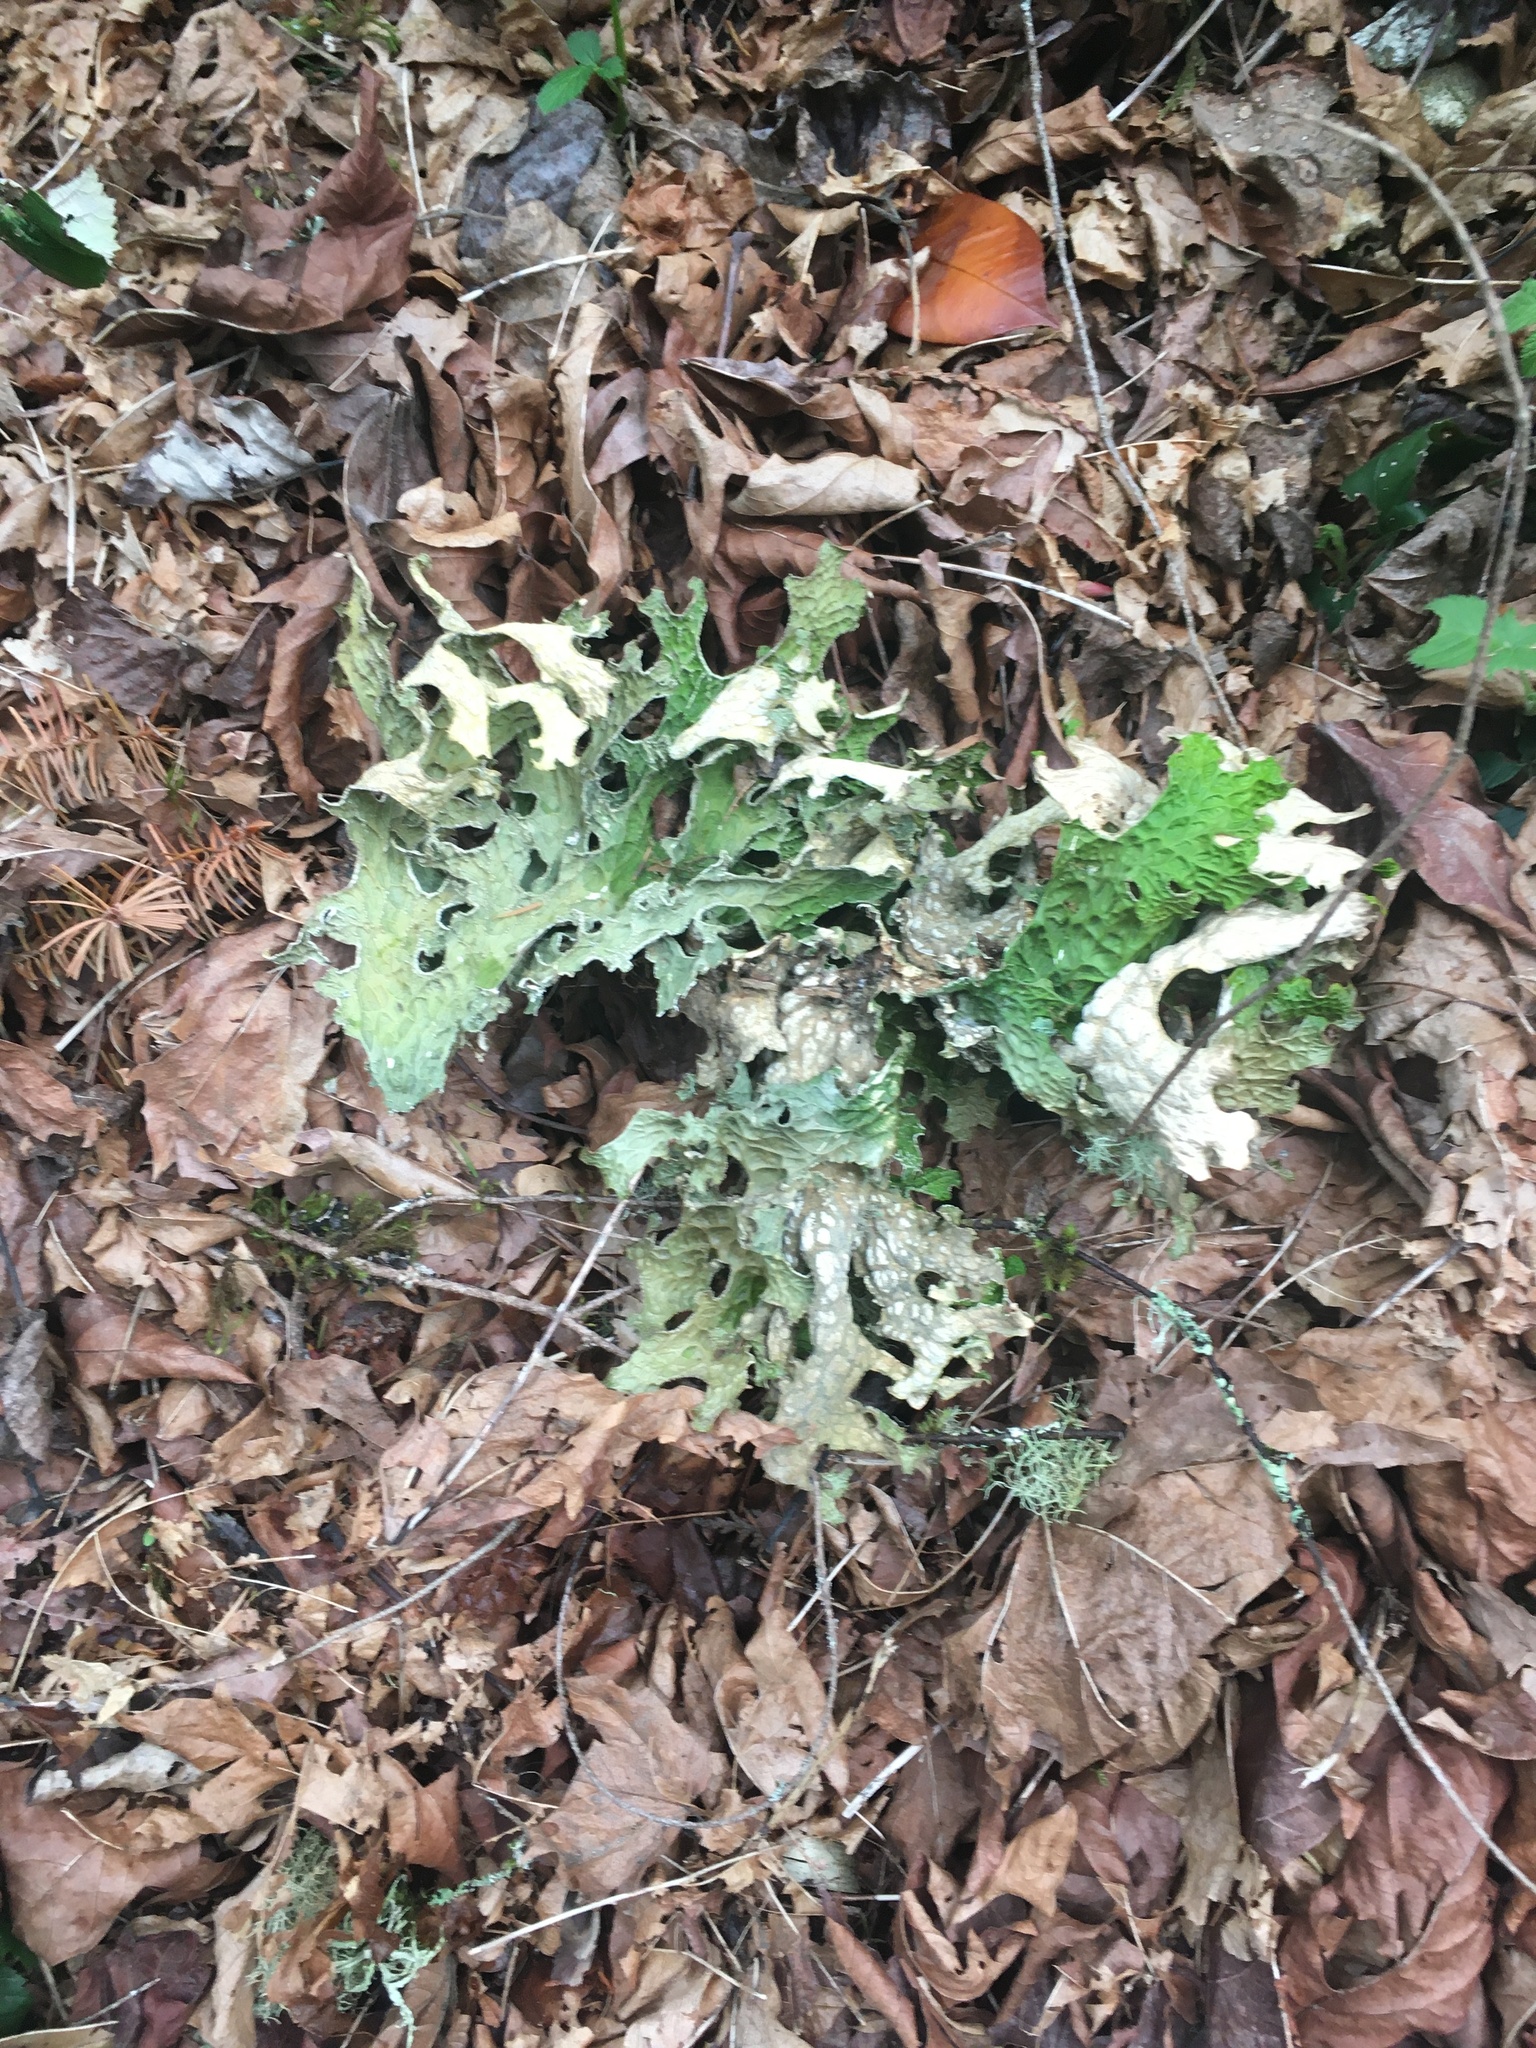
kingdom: Fungi
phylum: Ascomycota
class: Lecanoromycetes
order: Peltigerales
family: Lobariaceae
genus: Lobaria
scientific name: Lobaria pulmonaria
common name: Lungwort
